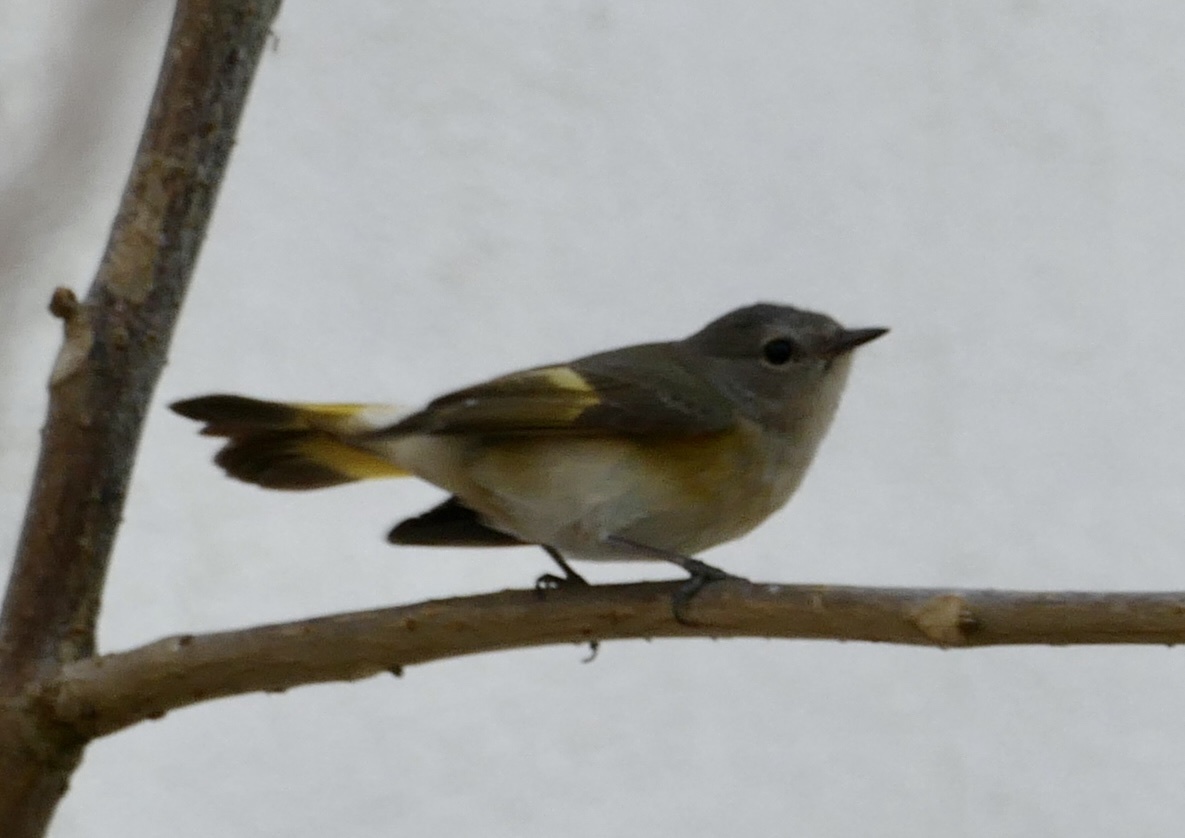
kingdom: Animalia
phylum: Chordata
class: Aves
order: Passeriformes
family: Parulidae
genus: Setophaga
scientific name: Setophaga ruticilla
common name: American redstart
